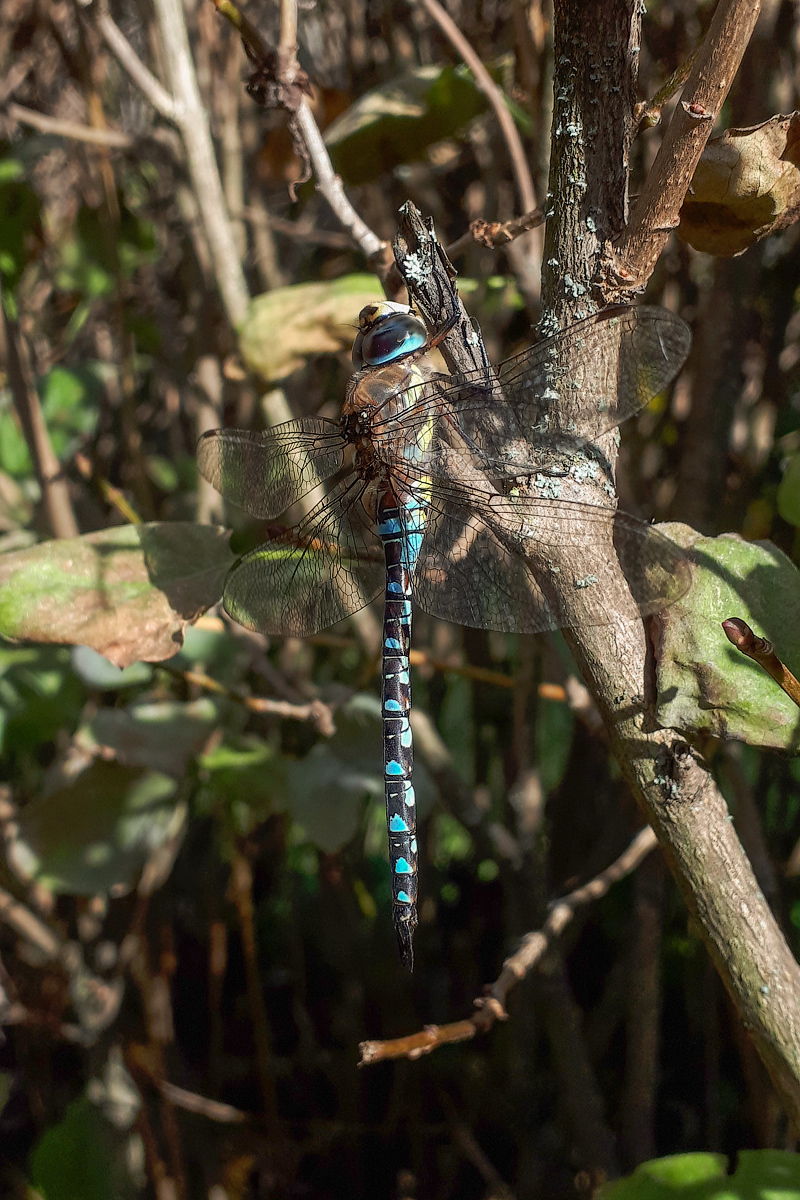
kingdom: Animalia
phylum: Arthropoda
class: Insecta
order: Odonata
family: Aeshnidae
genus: Aeshna
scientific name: Aeshna mixta
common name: Migrant hawker
